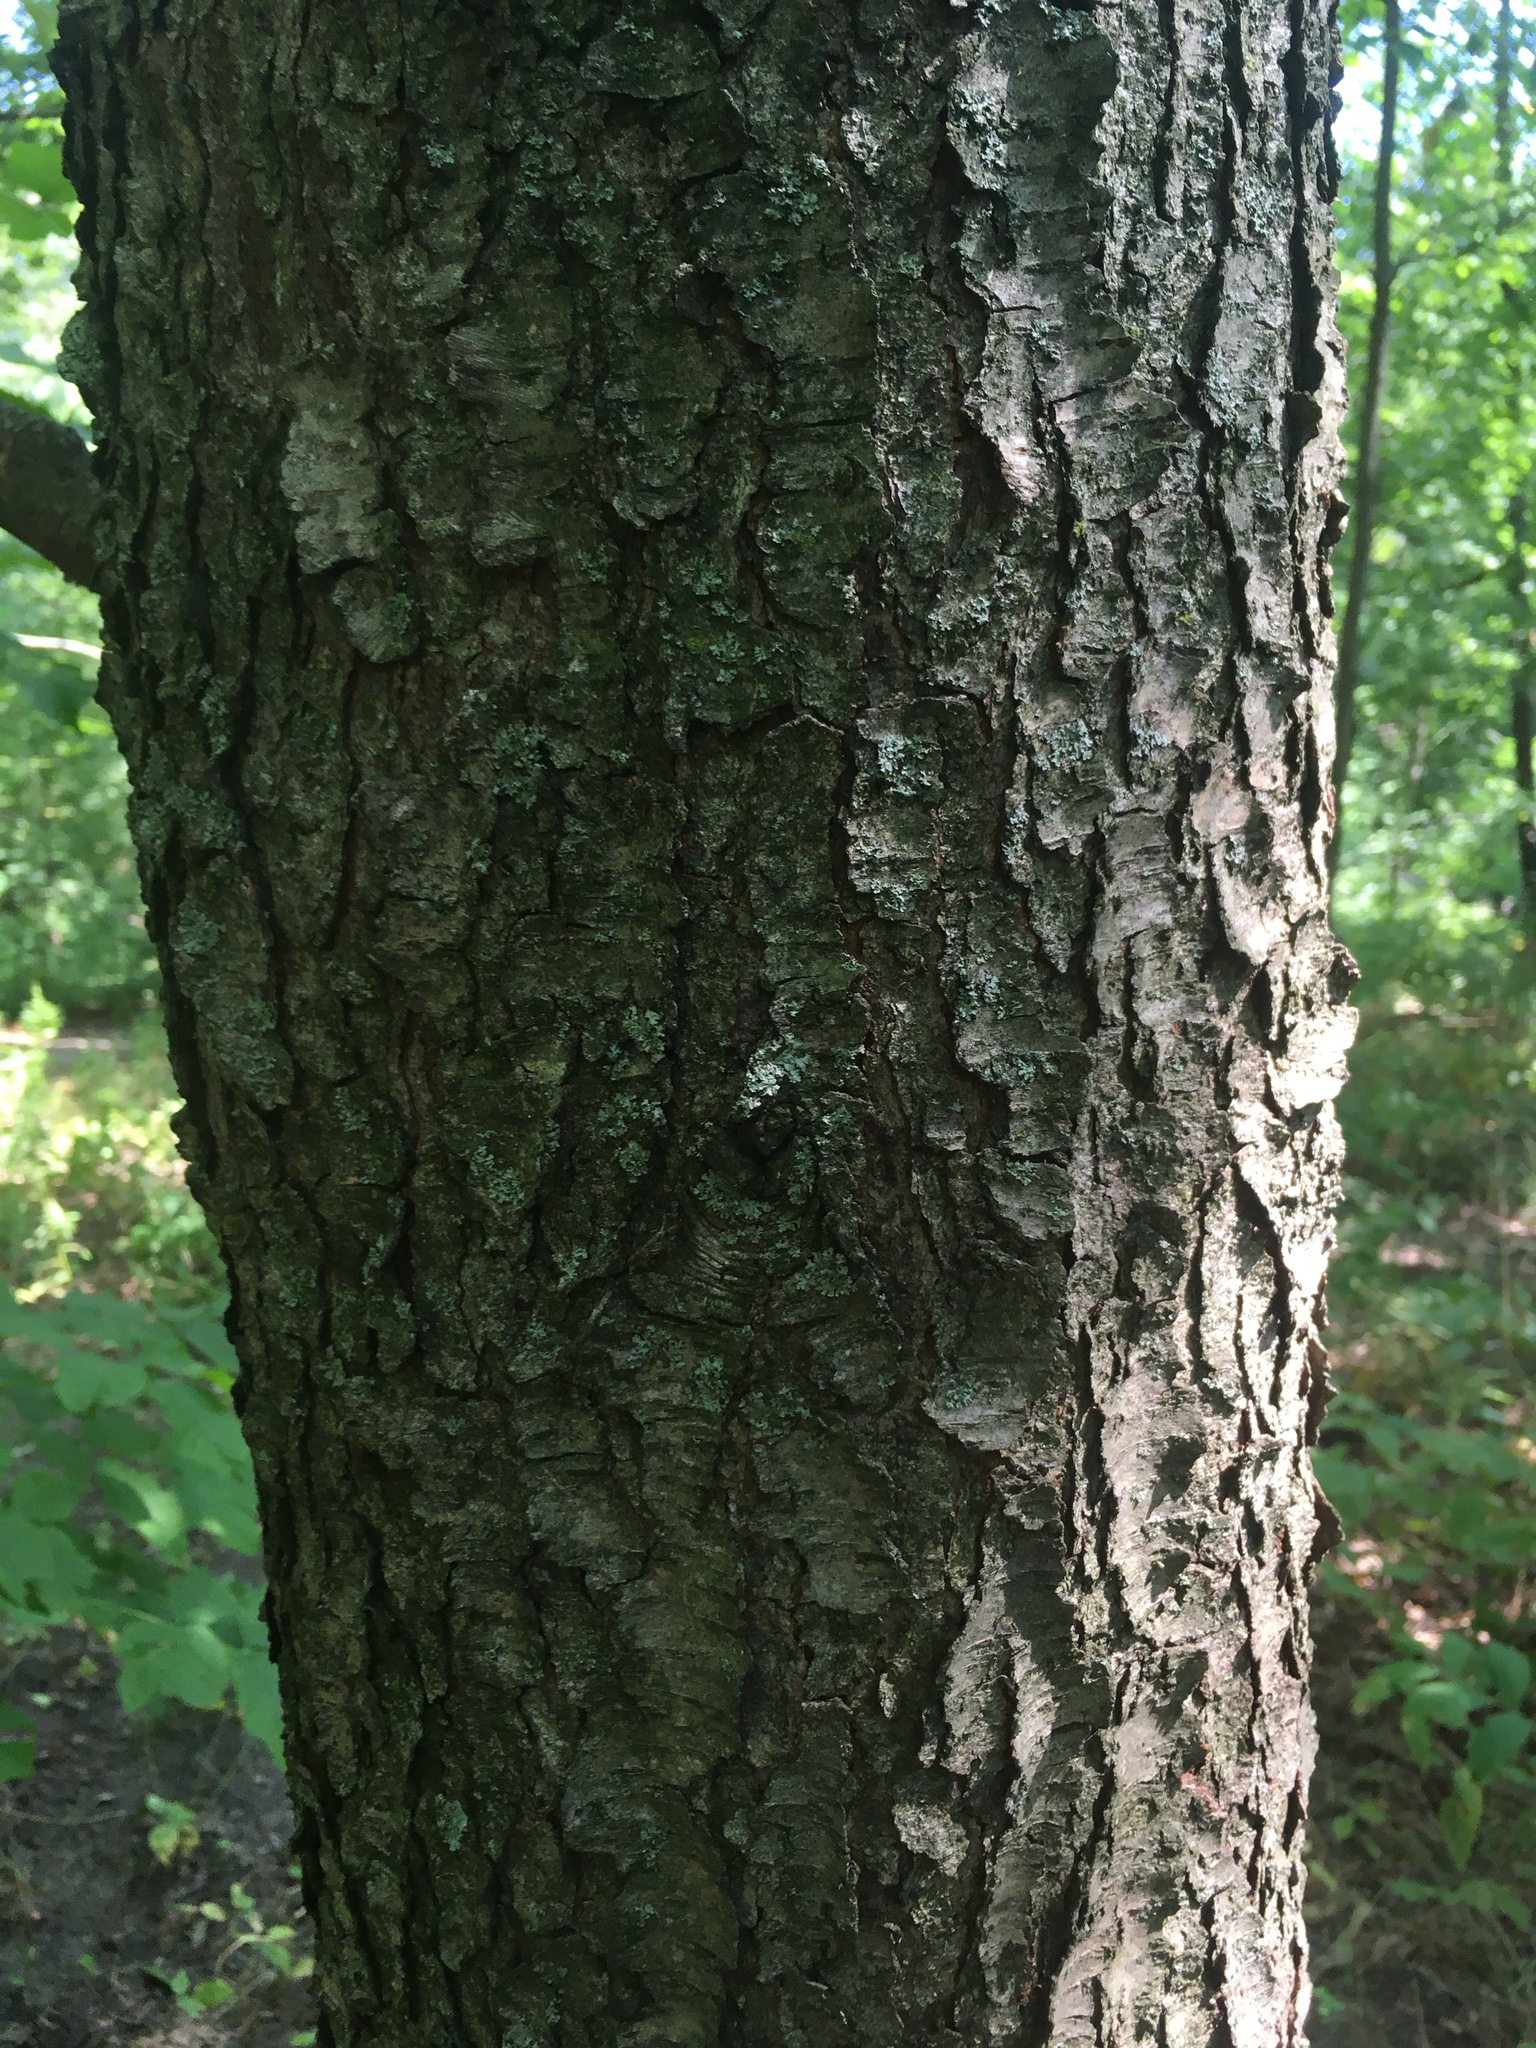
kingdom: Plantae
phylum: Tracheophyta
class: Magnoliopsida
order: Rosales
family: Rosaceae
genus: Prunus
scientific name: Prunus serotina
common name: Black cherry
